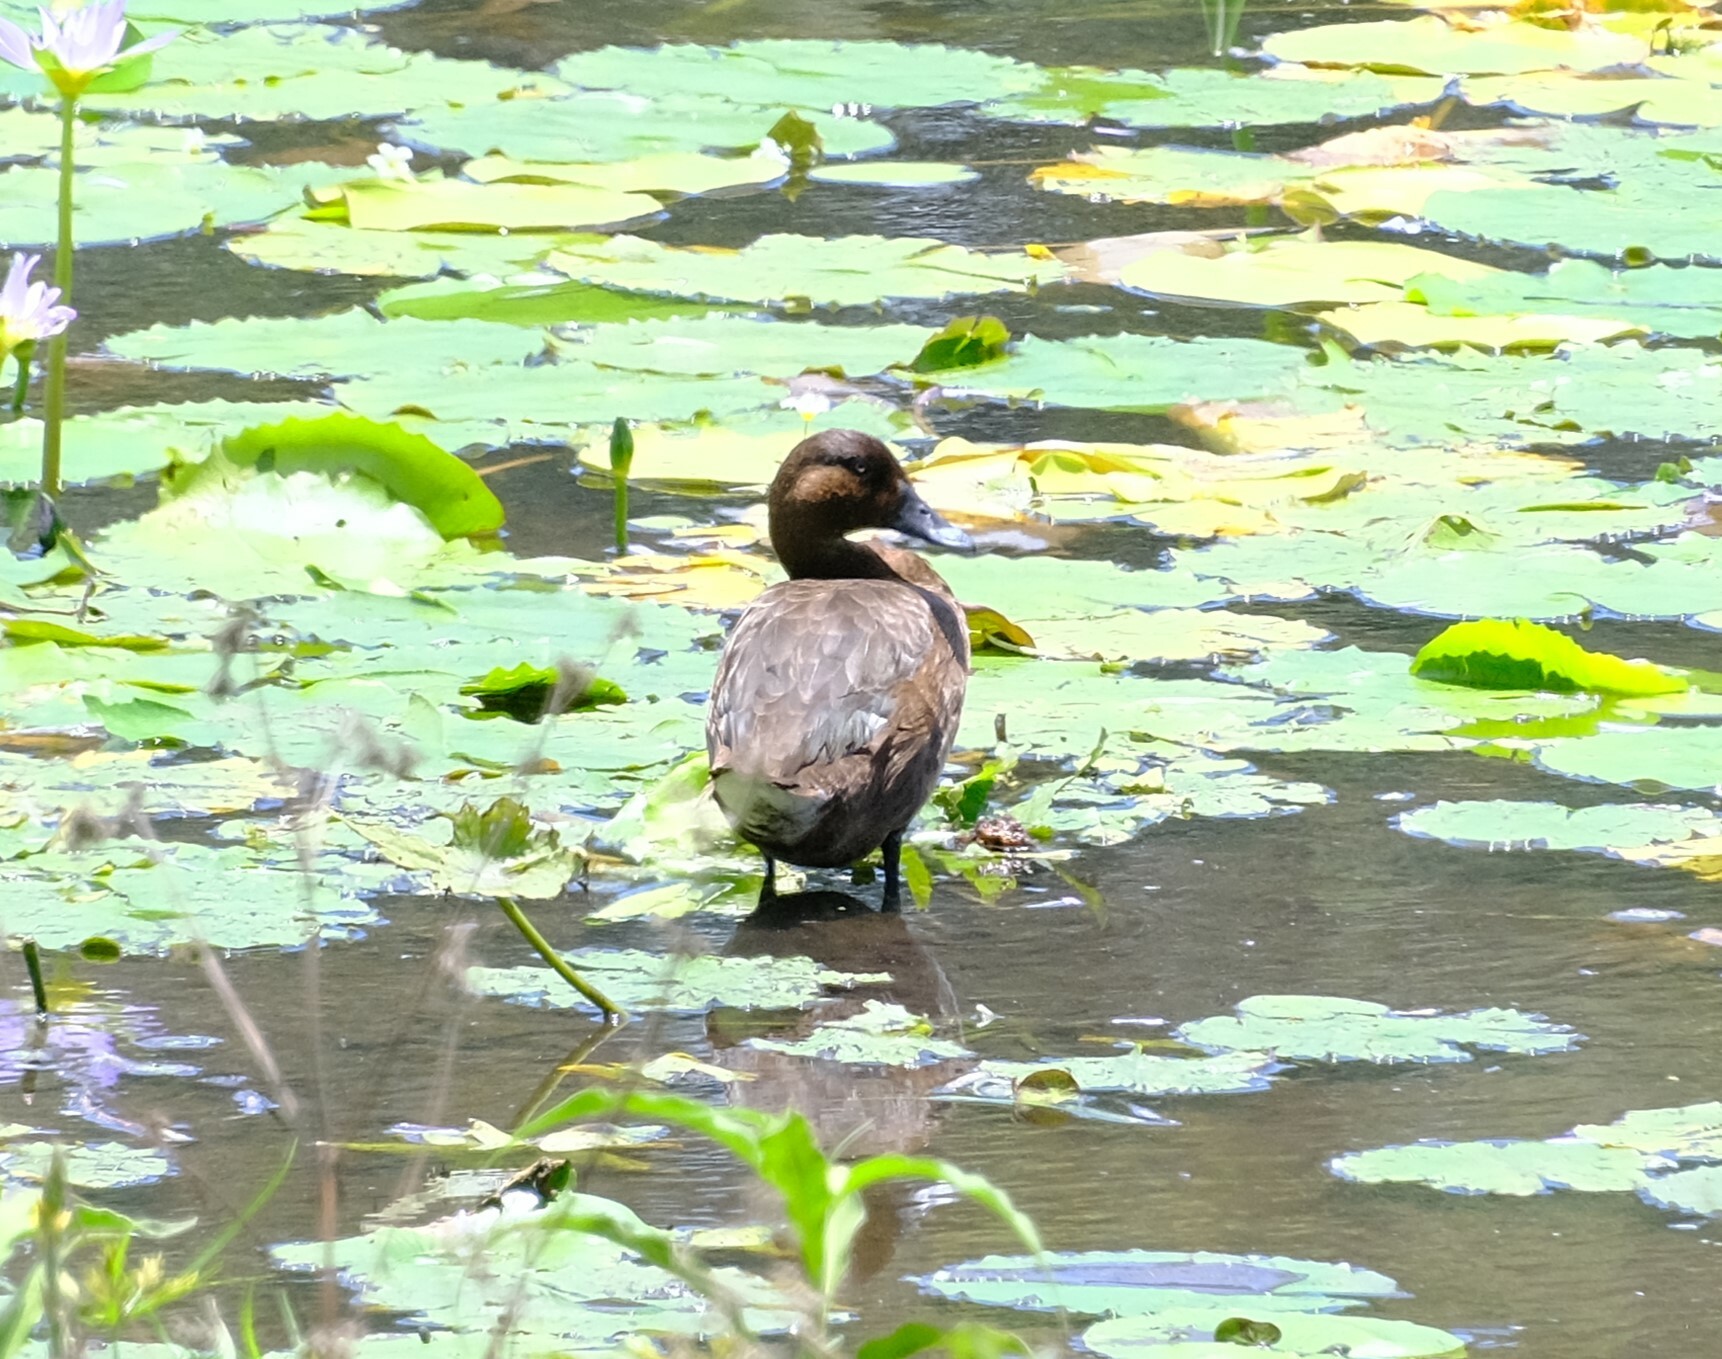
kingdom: Animalia
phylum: Chordata
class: Aves
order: Anseriformes
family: Anatidae
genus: Aythya
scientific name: Aythya australis
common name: Hardhead
